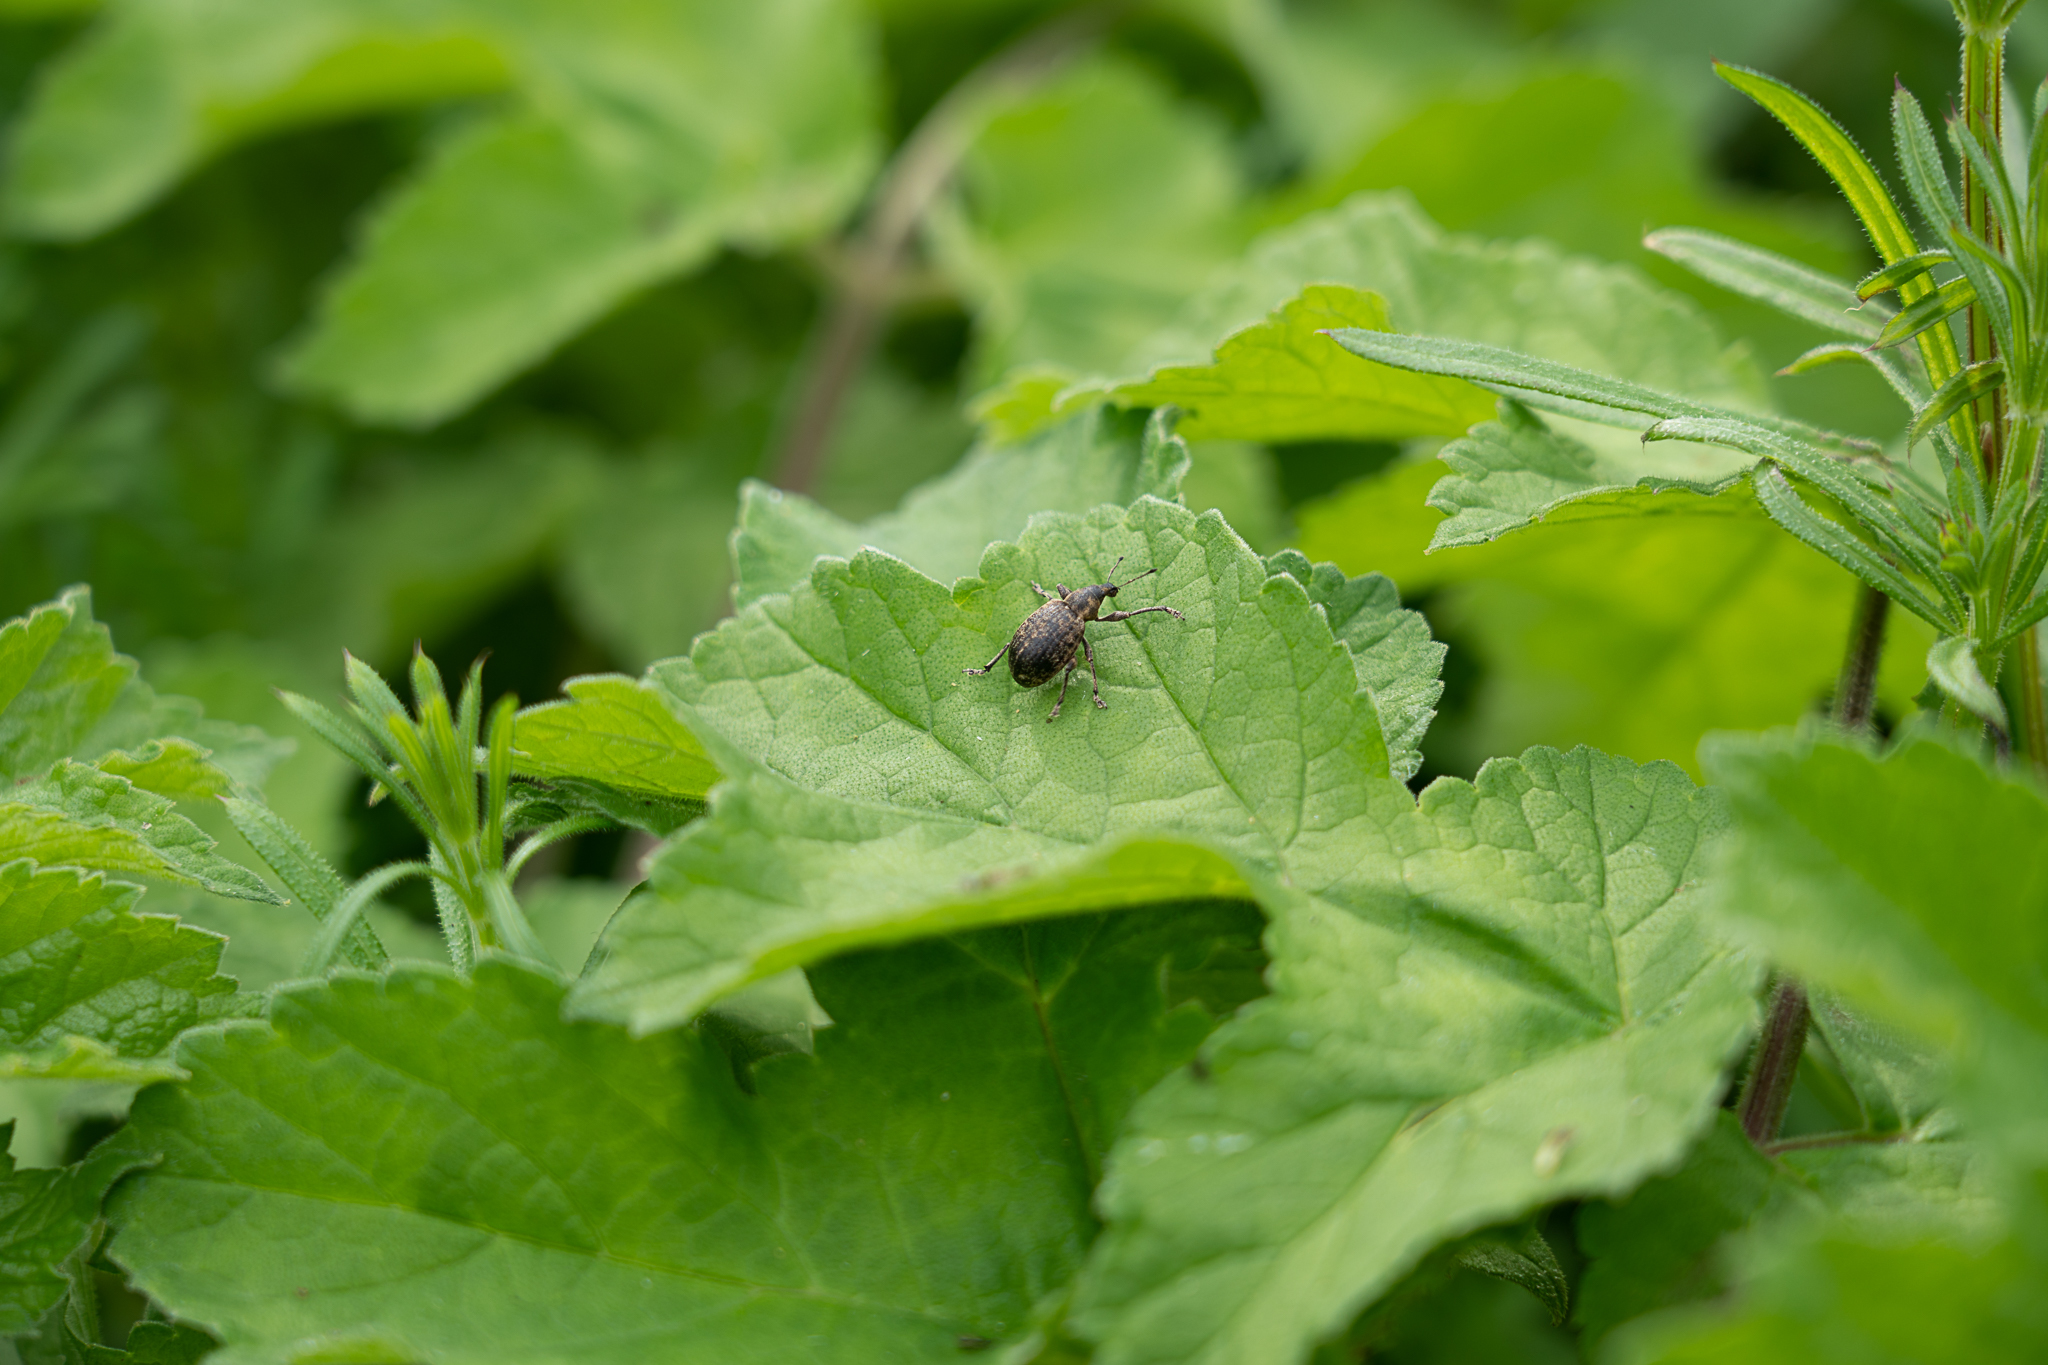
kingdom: Animalia
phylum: Arthropoda
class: Insecta
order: Coleoptera
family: Curculionidae
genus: Liophloeus
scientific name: Liophloeus tessulatus
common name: Weevil
